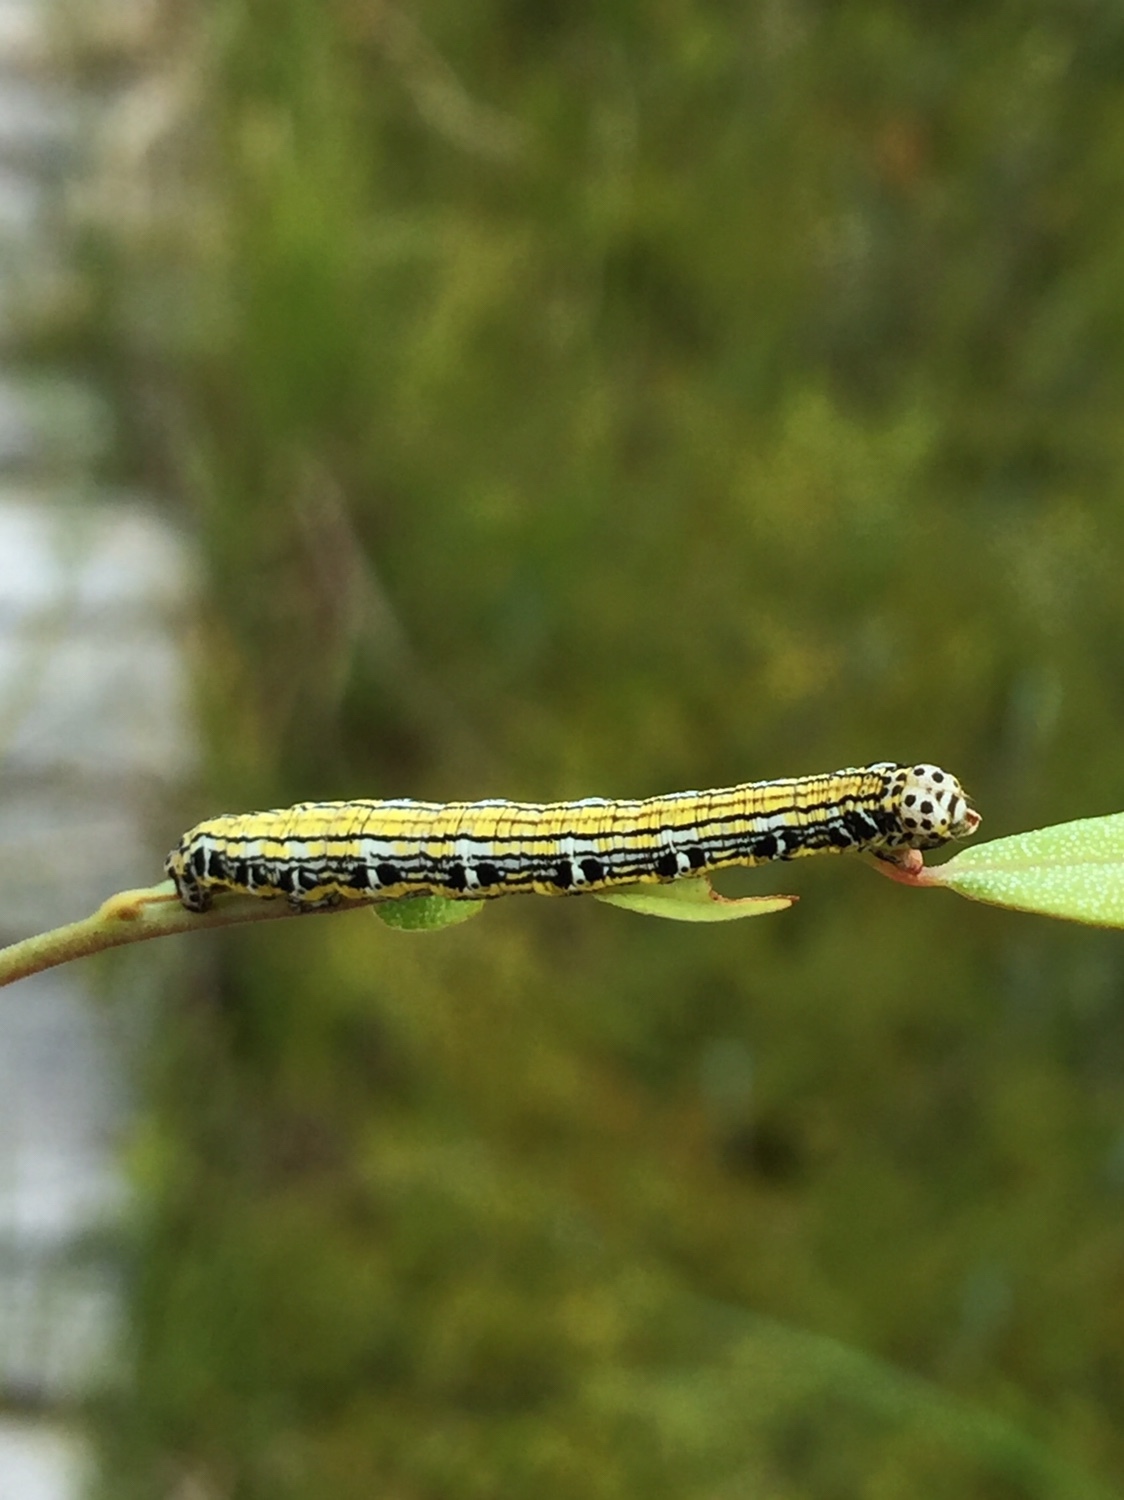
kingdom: Animalia
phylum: Arthropoda
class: Insecta
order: Lepidoptera
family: Geometridae
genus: Cingilia
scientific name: Cingilia catenaria
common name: Chain-dotted geometer
